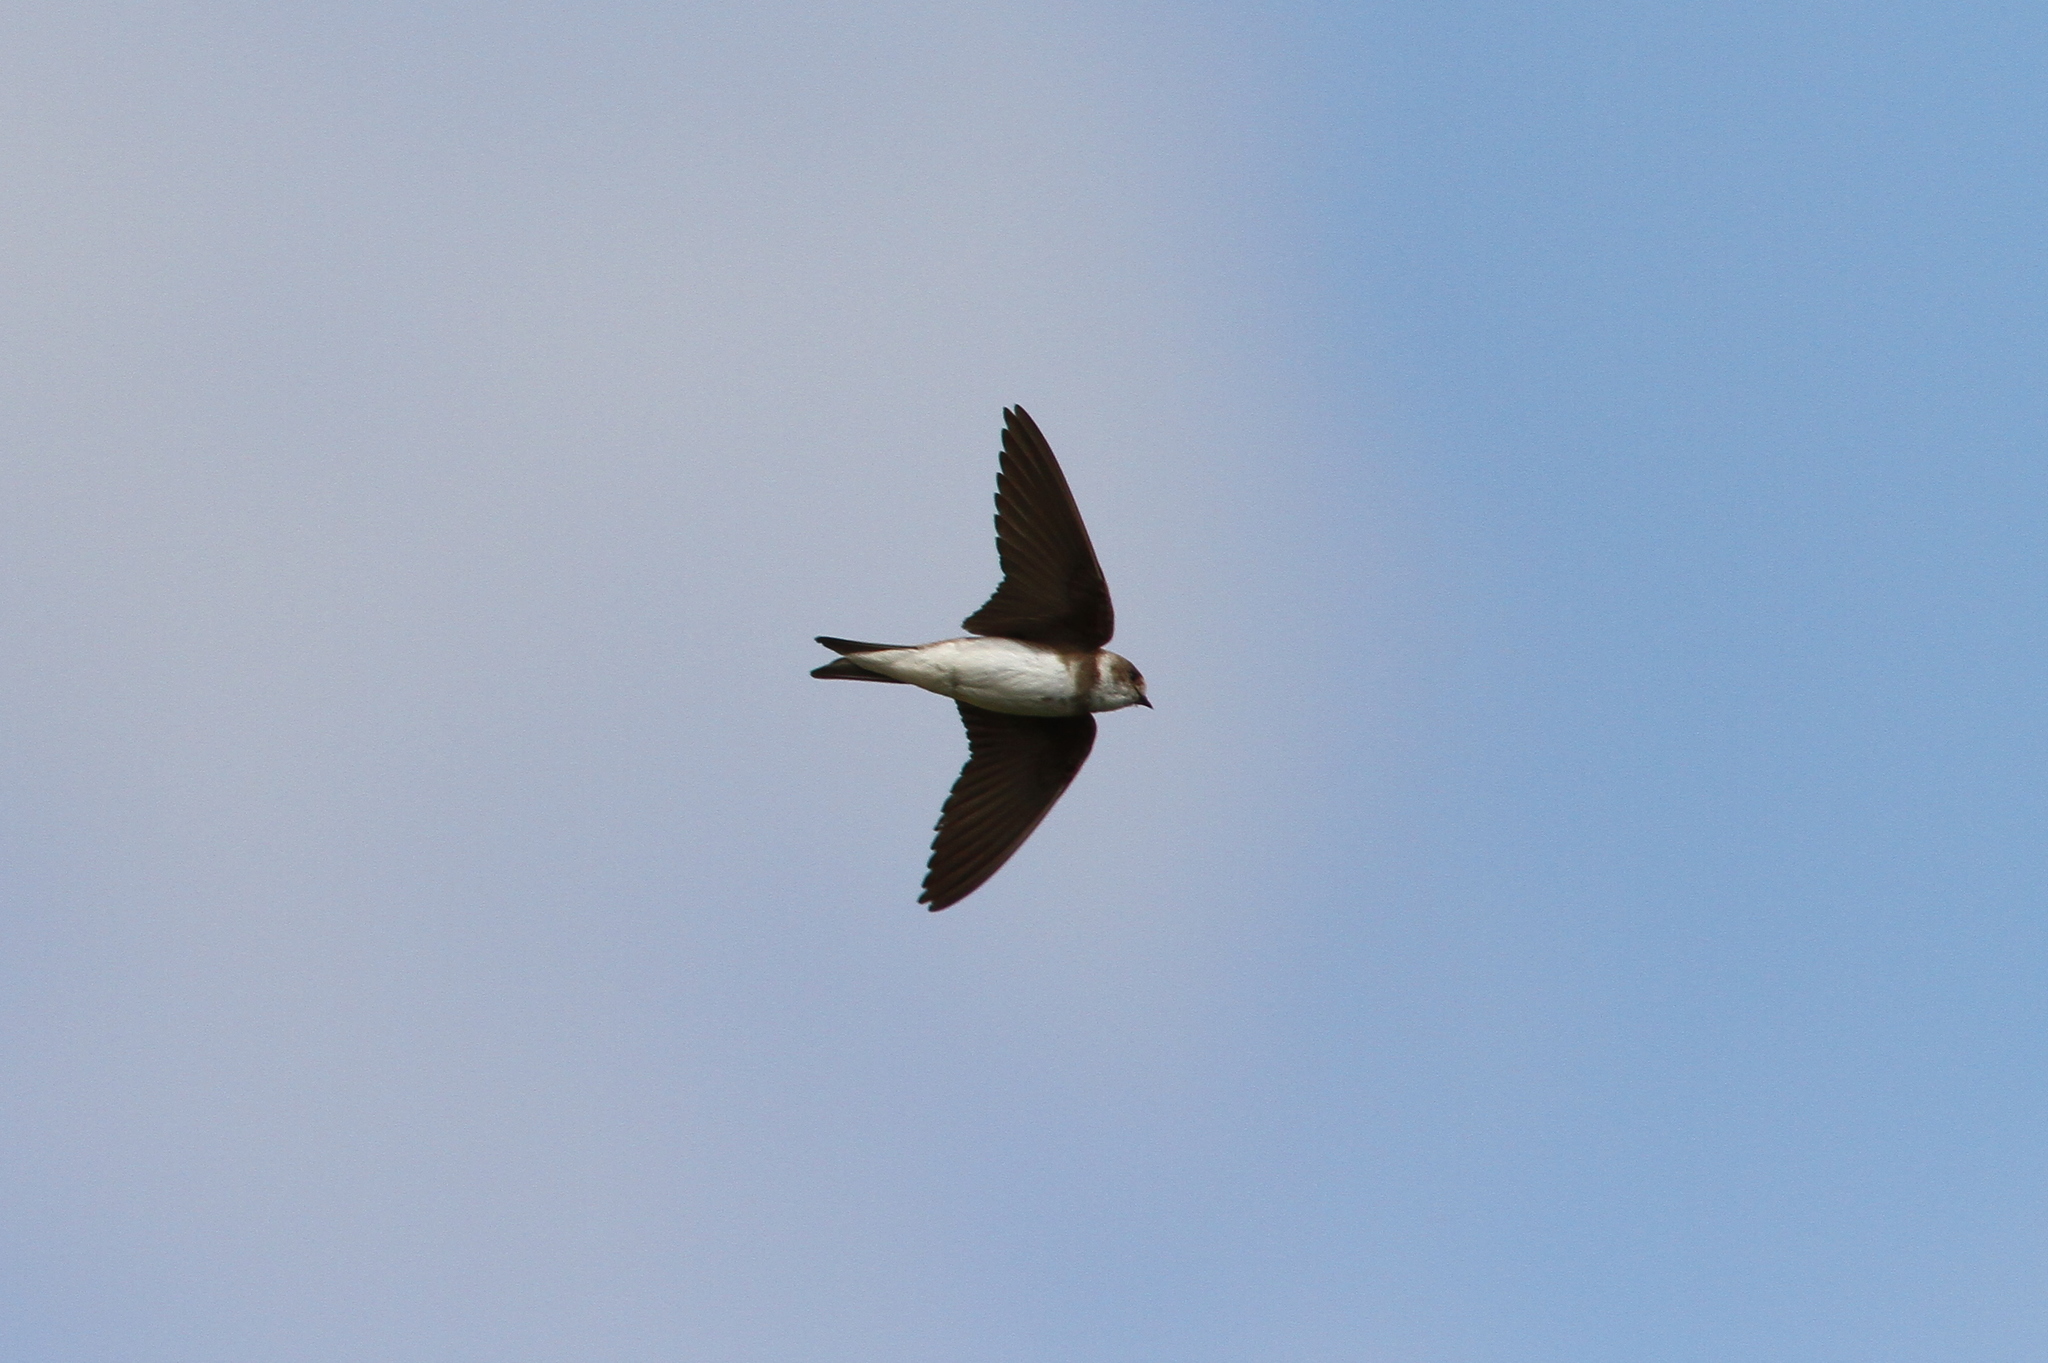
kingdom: Animalia
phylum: Chordata
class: Aves
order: Passeriformes
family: Hirundinidae
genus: Riparia
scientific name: Riparia riparia
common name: Sand martin
